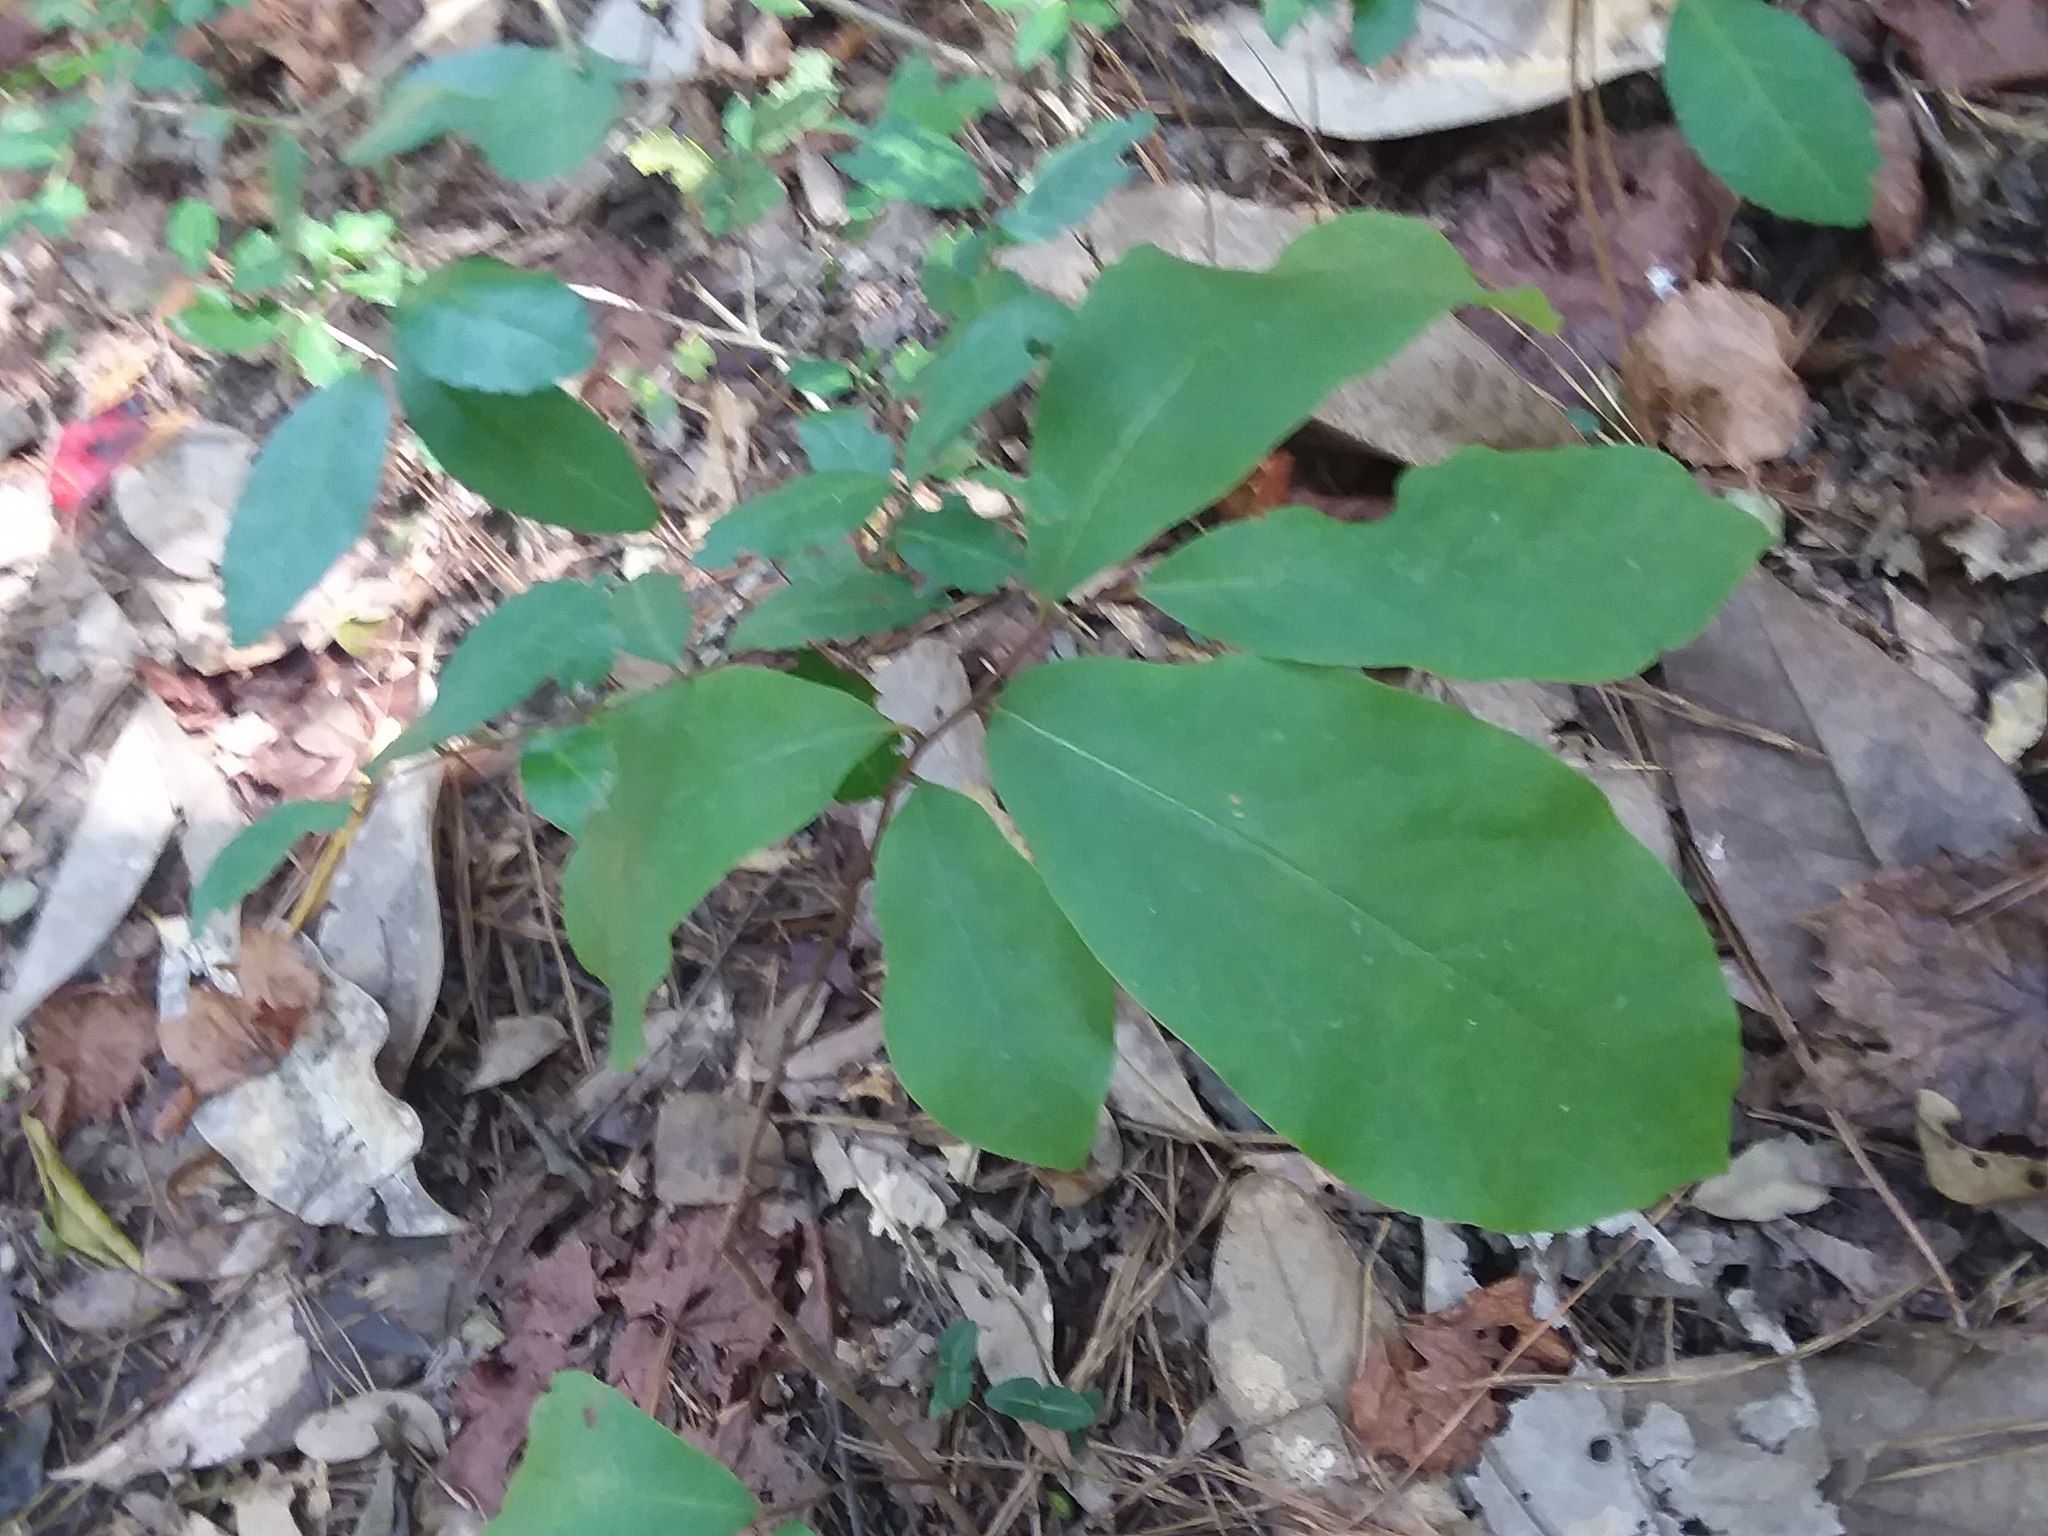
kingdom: Plantae
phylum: Tracheophyta
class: Magnoliopsida
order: Magnoliales
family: Annonaceae
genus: Asimina
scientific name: Asimina parviflora
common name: Dwarf pawpaw
